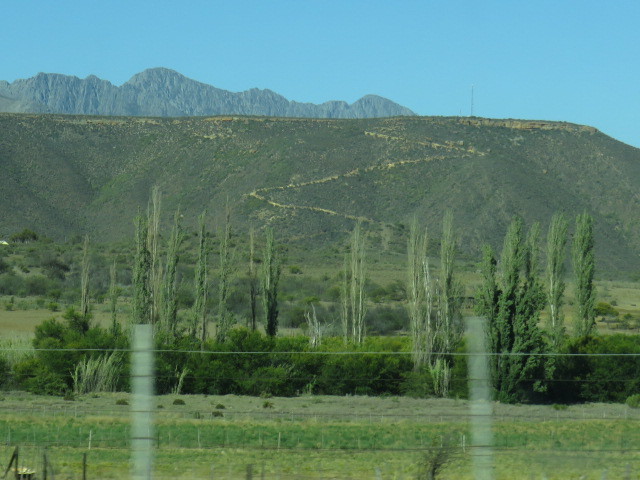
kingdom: Plantae
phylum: Tracheophyta
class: Magnoliopsida
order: Malpighiales
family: Salicaceae
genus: Populus
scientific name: Populus nigra
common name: Black poplar
